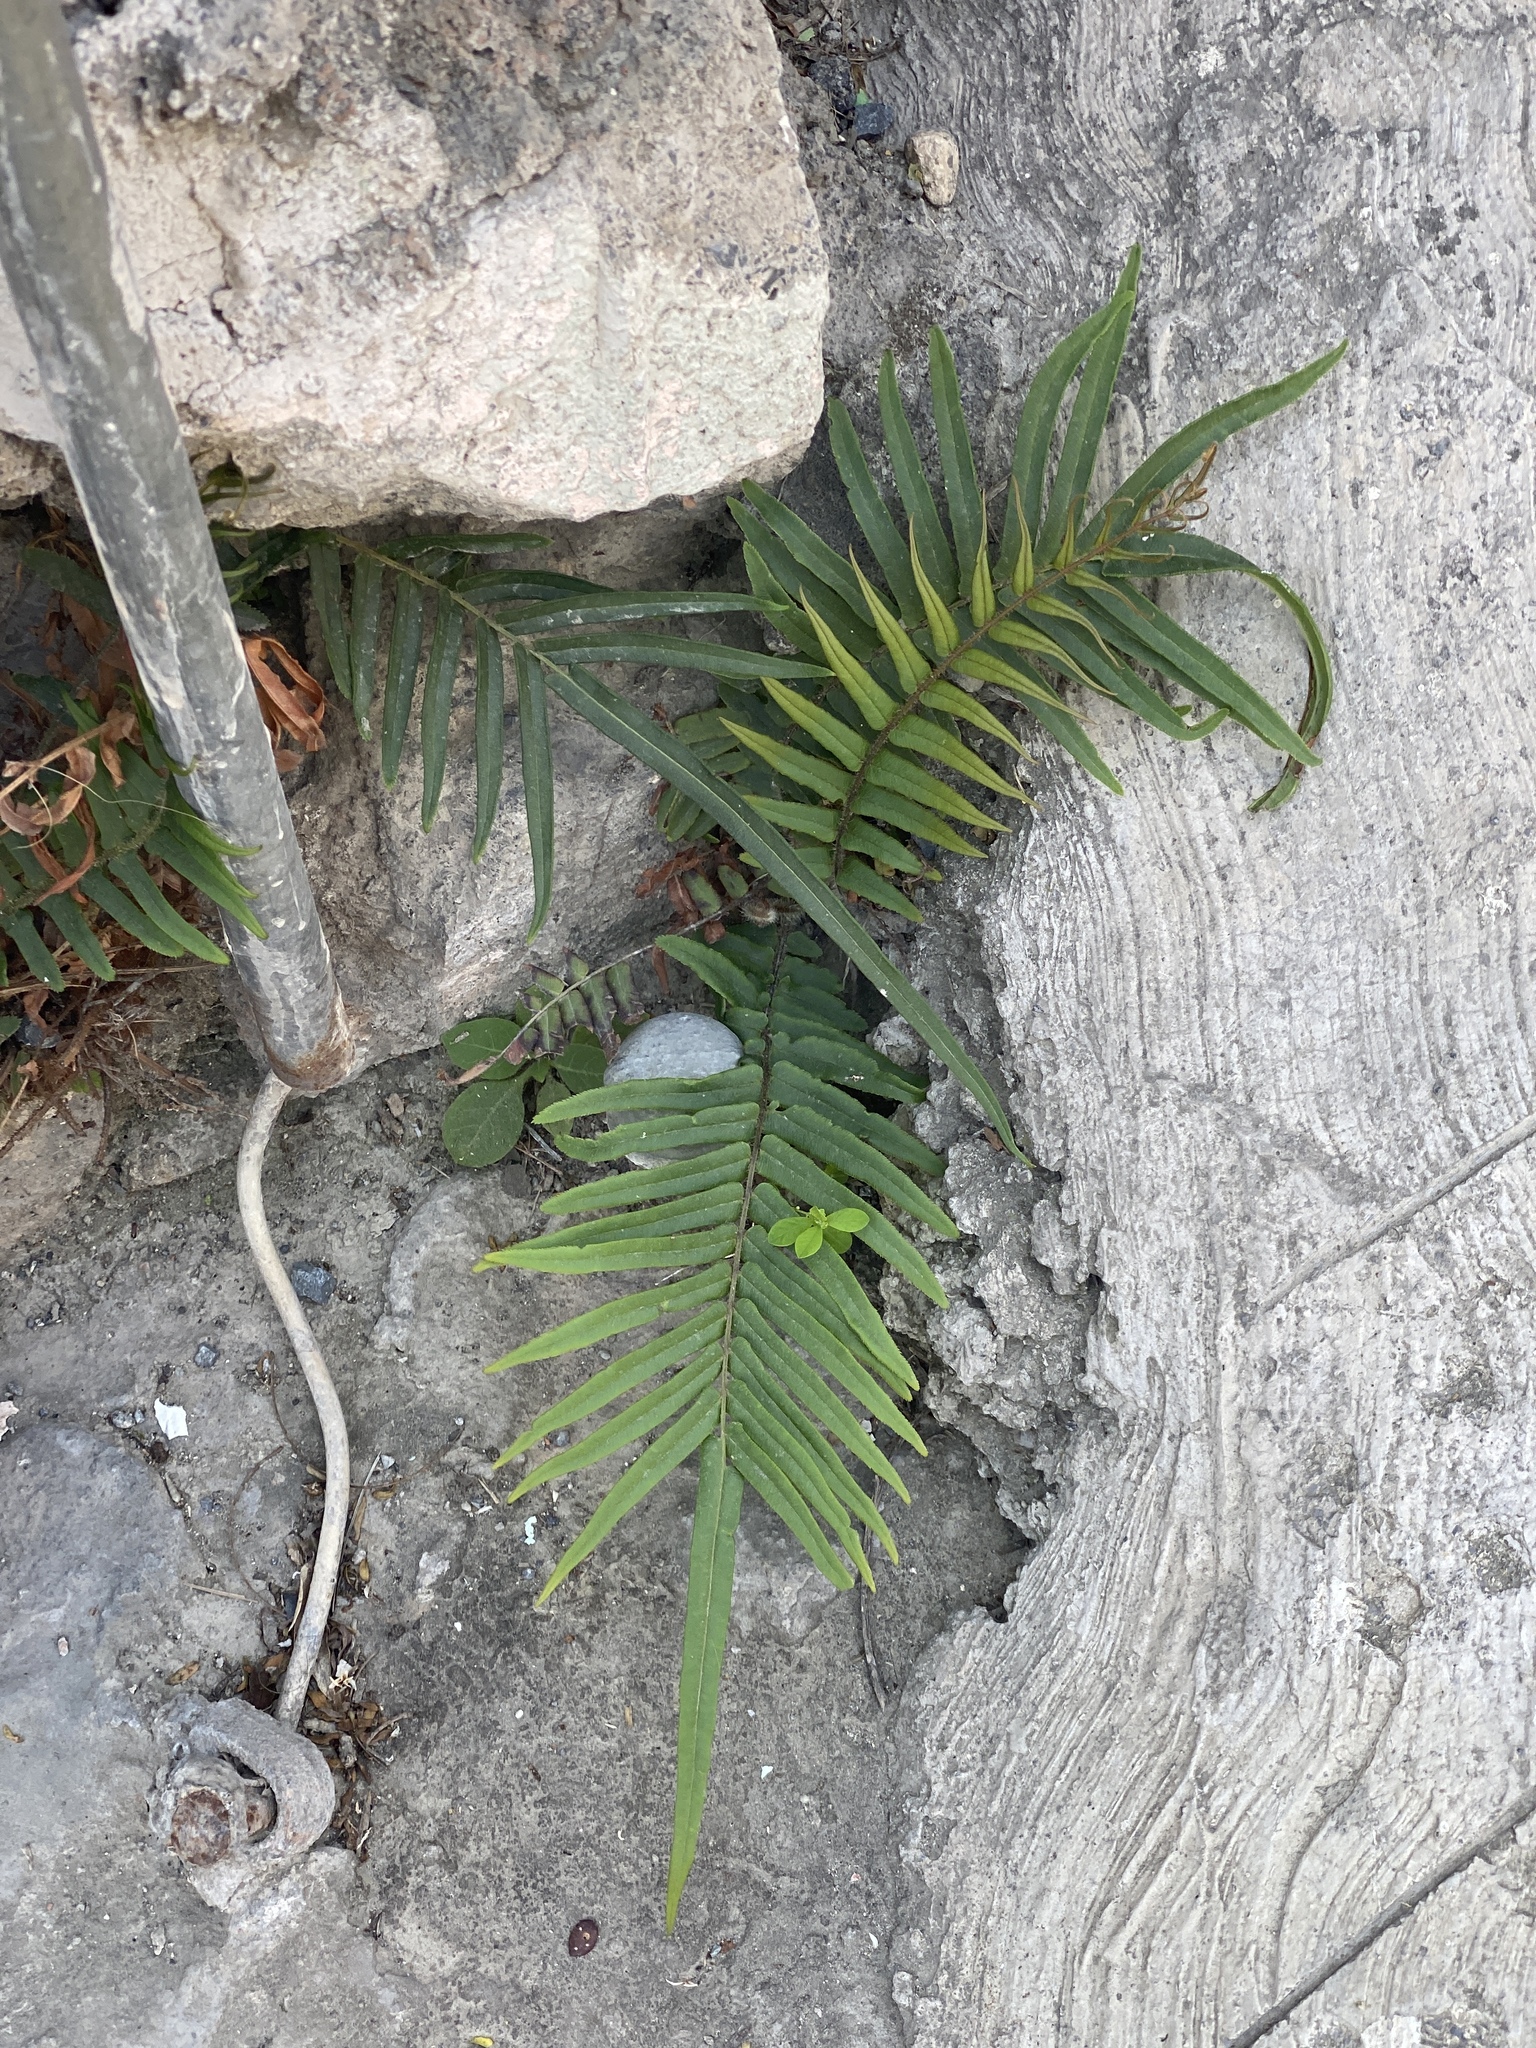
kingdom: Plantae
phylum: Tracheophyta
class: Polypodiopsida
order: Polypodiales
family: Pteridaceae
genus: Pteris
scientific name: Pteris vittata
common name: Ladder brake
